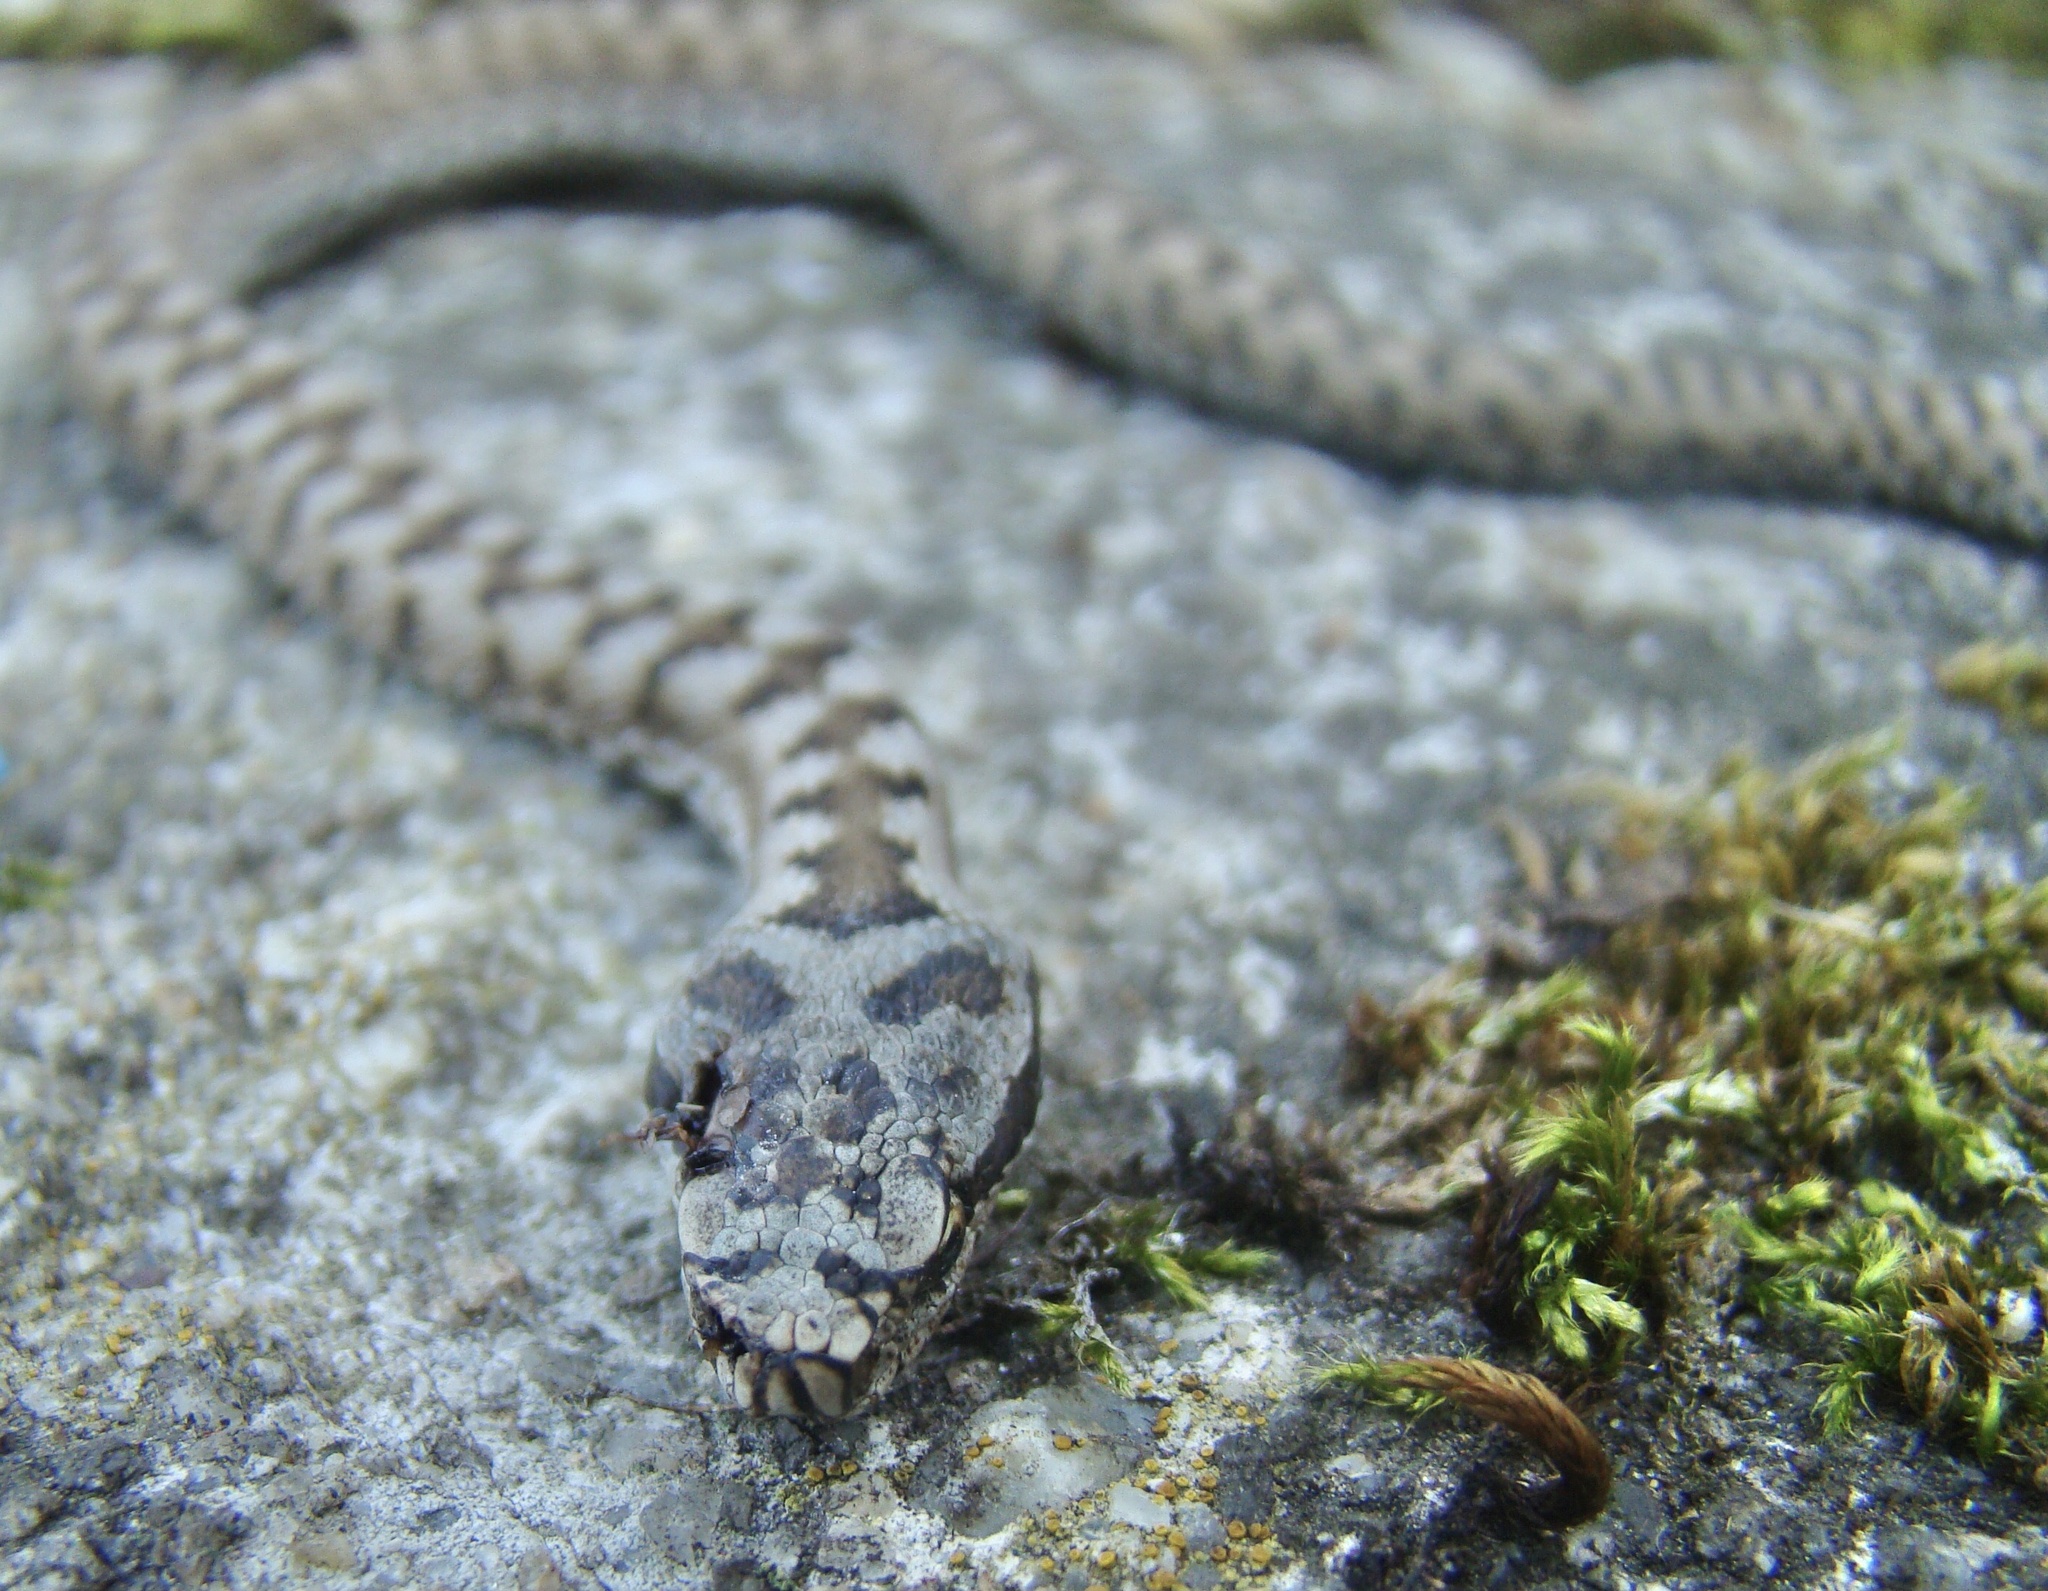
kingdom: Animalia
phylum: Chordata
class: Squamata
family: Viperidae
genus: Vipera
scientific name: Vipera aspis
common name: Asp viper
